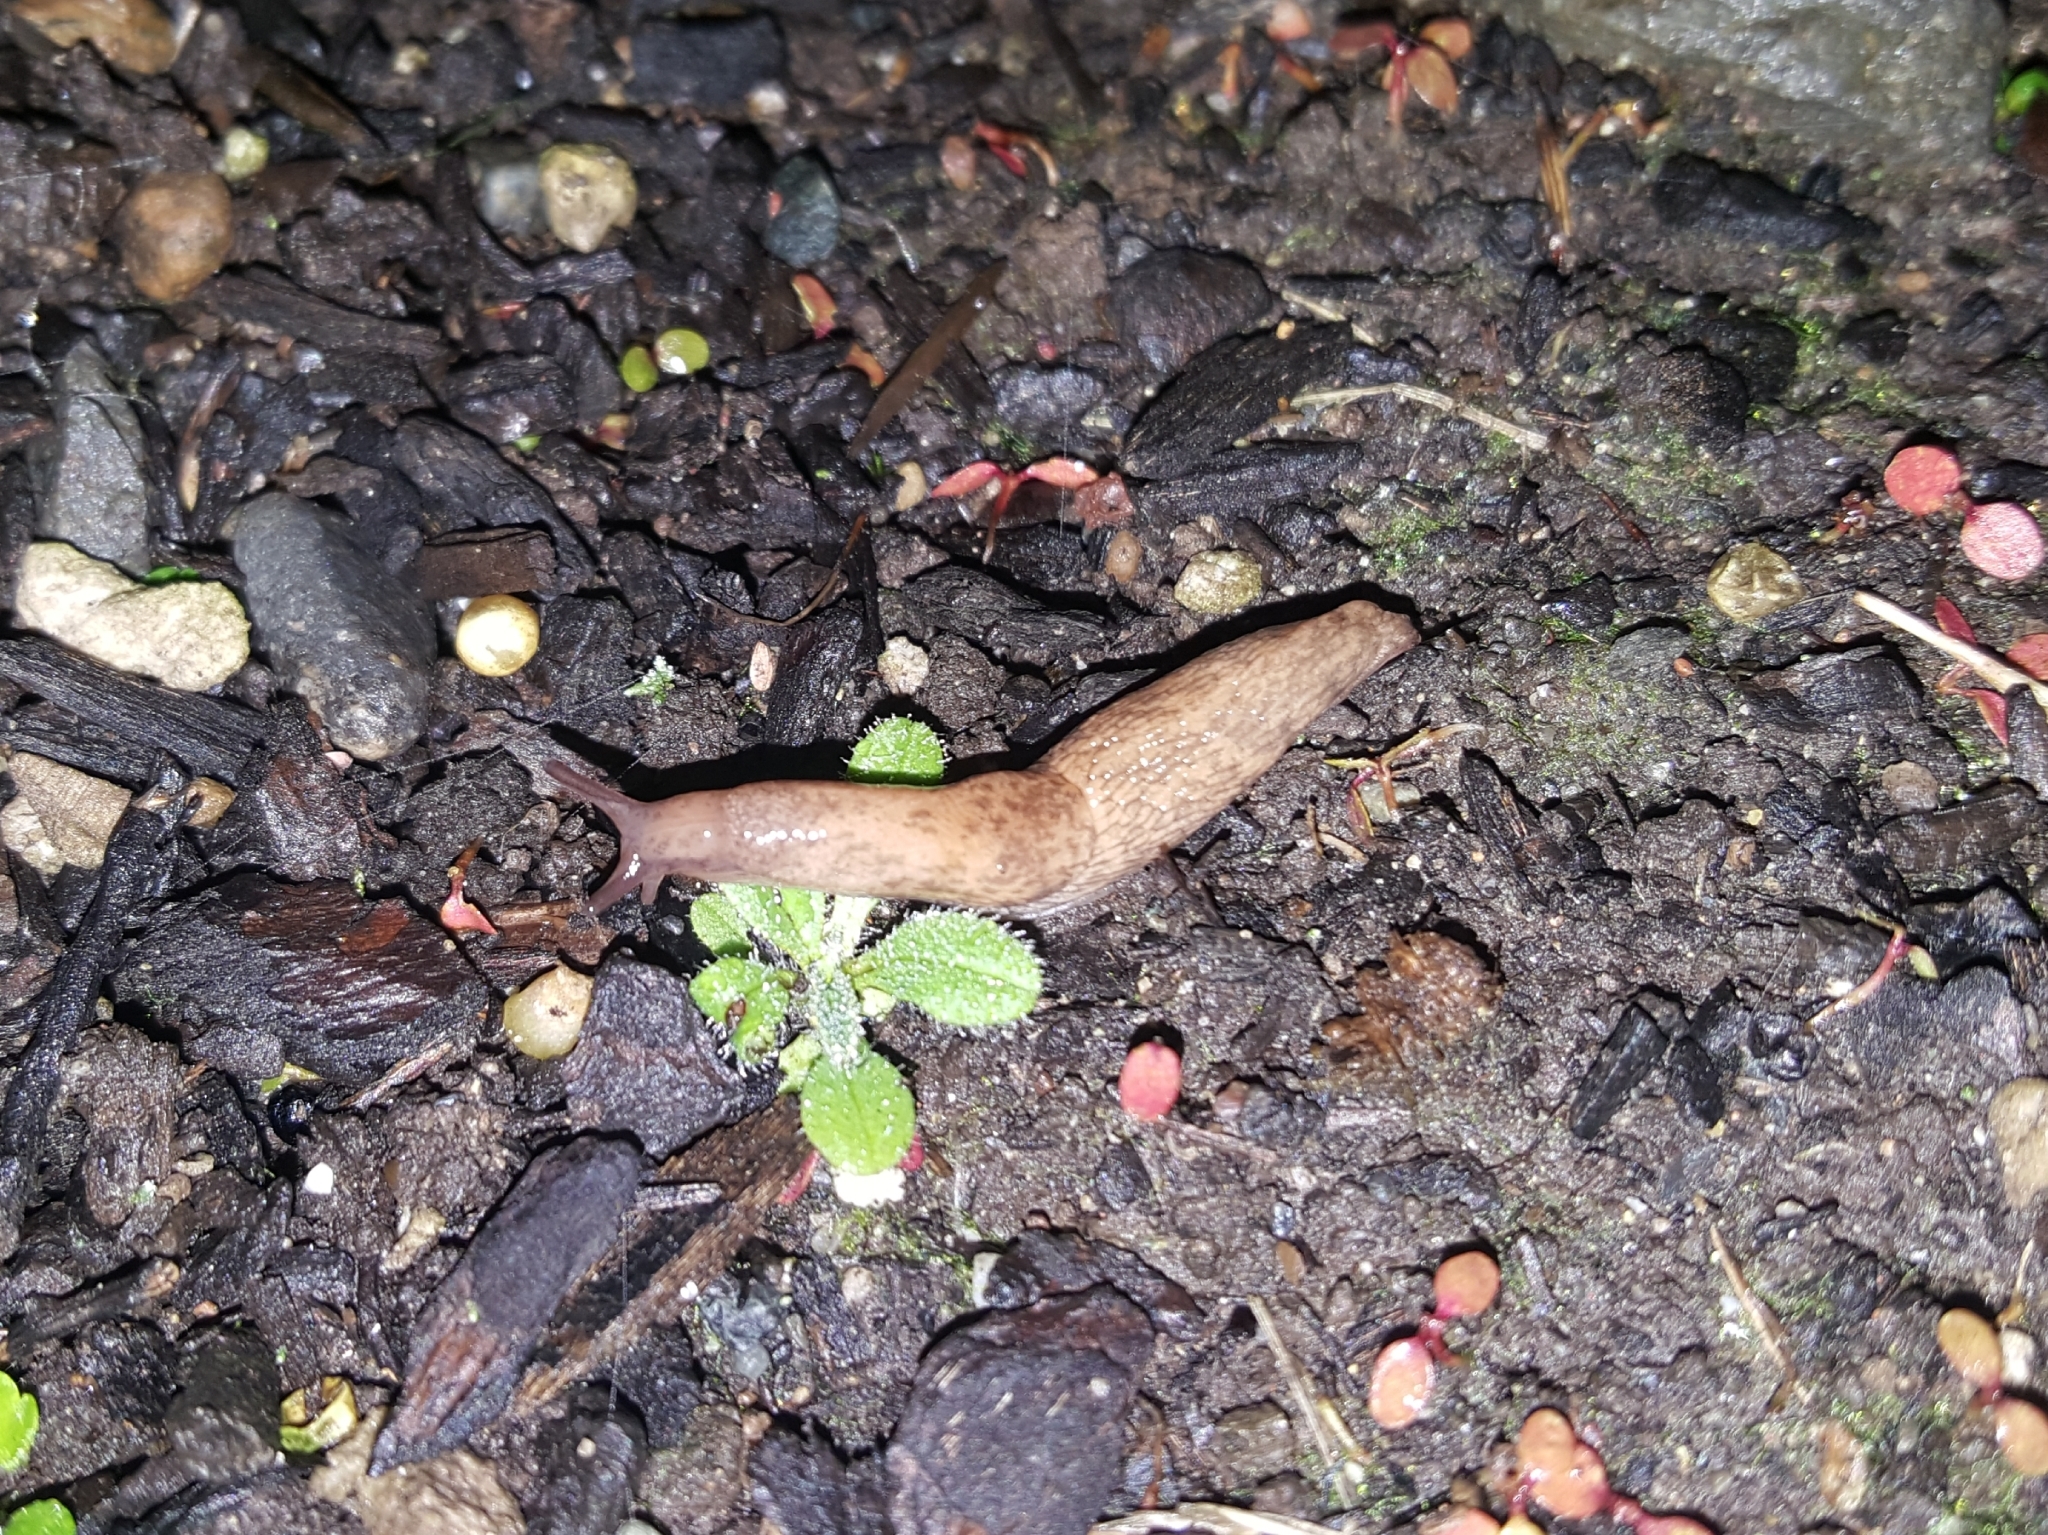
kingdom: Animalia
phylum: Mollusca
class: Gastropoda
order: Stylommatophora
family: Agriolimacidae
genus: Deroceras
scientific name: Deroceras reticulatum
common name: Gray field slug
